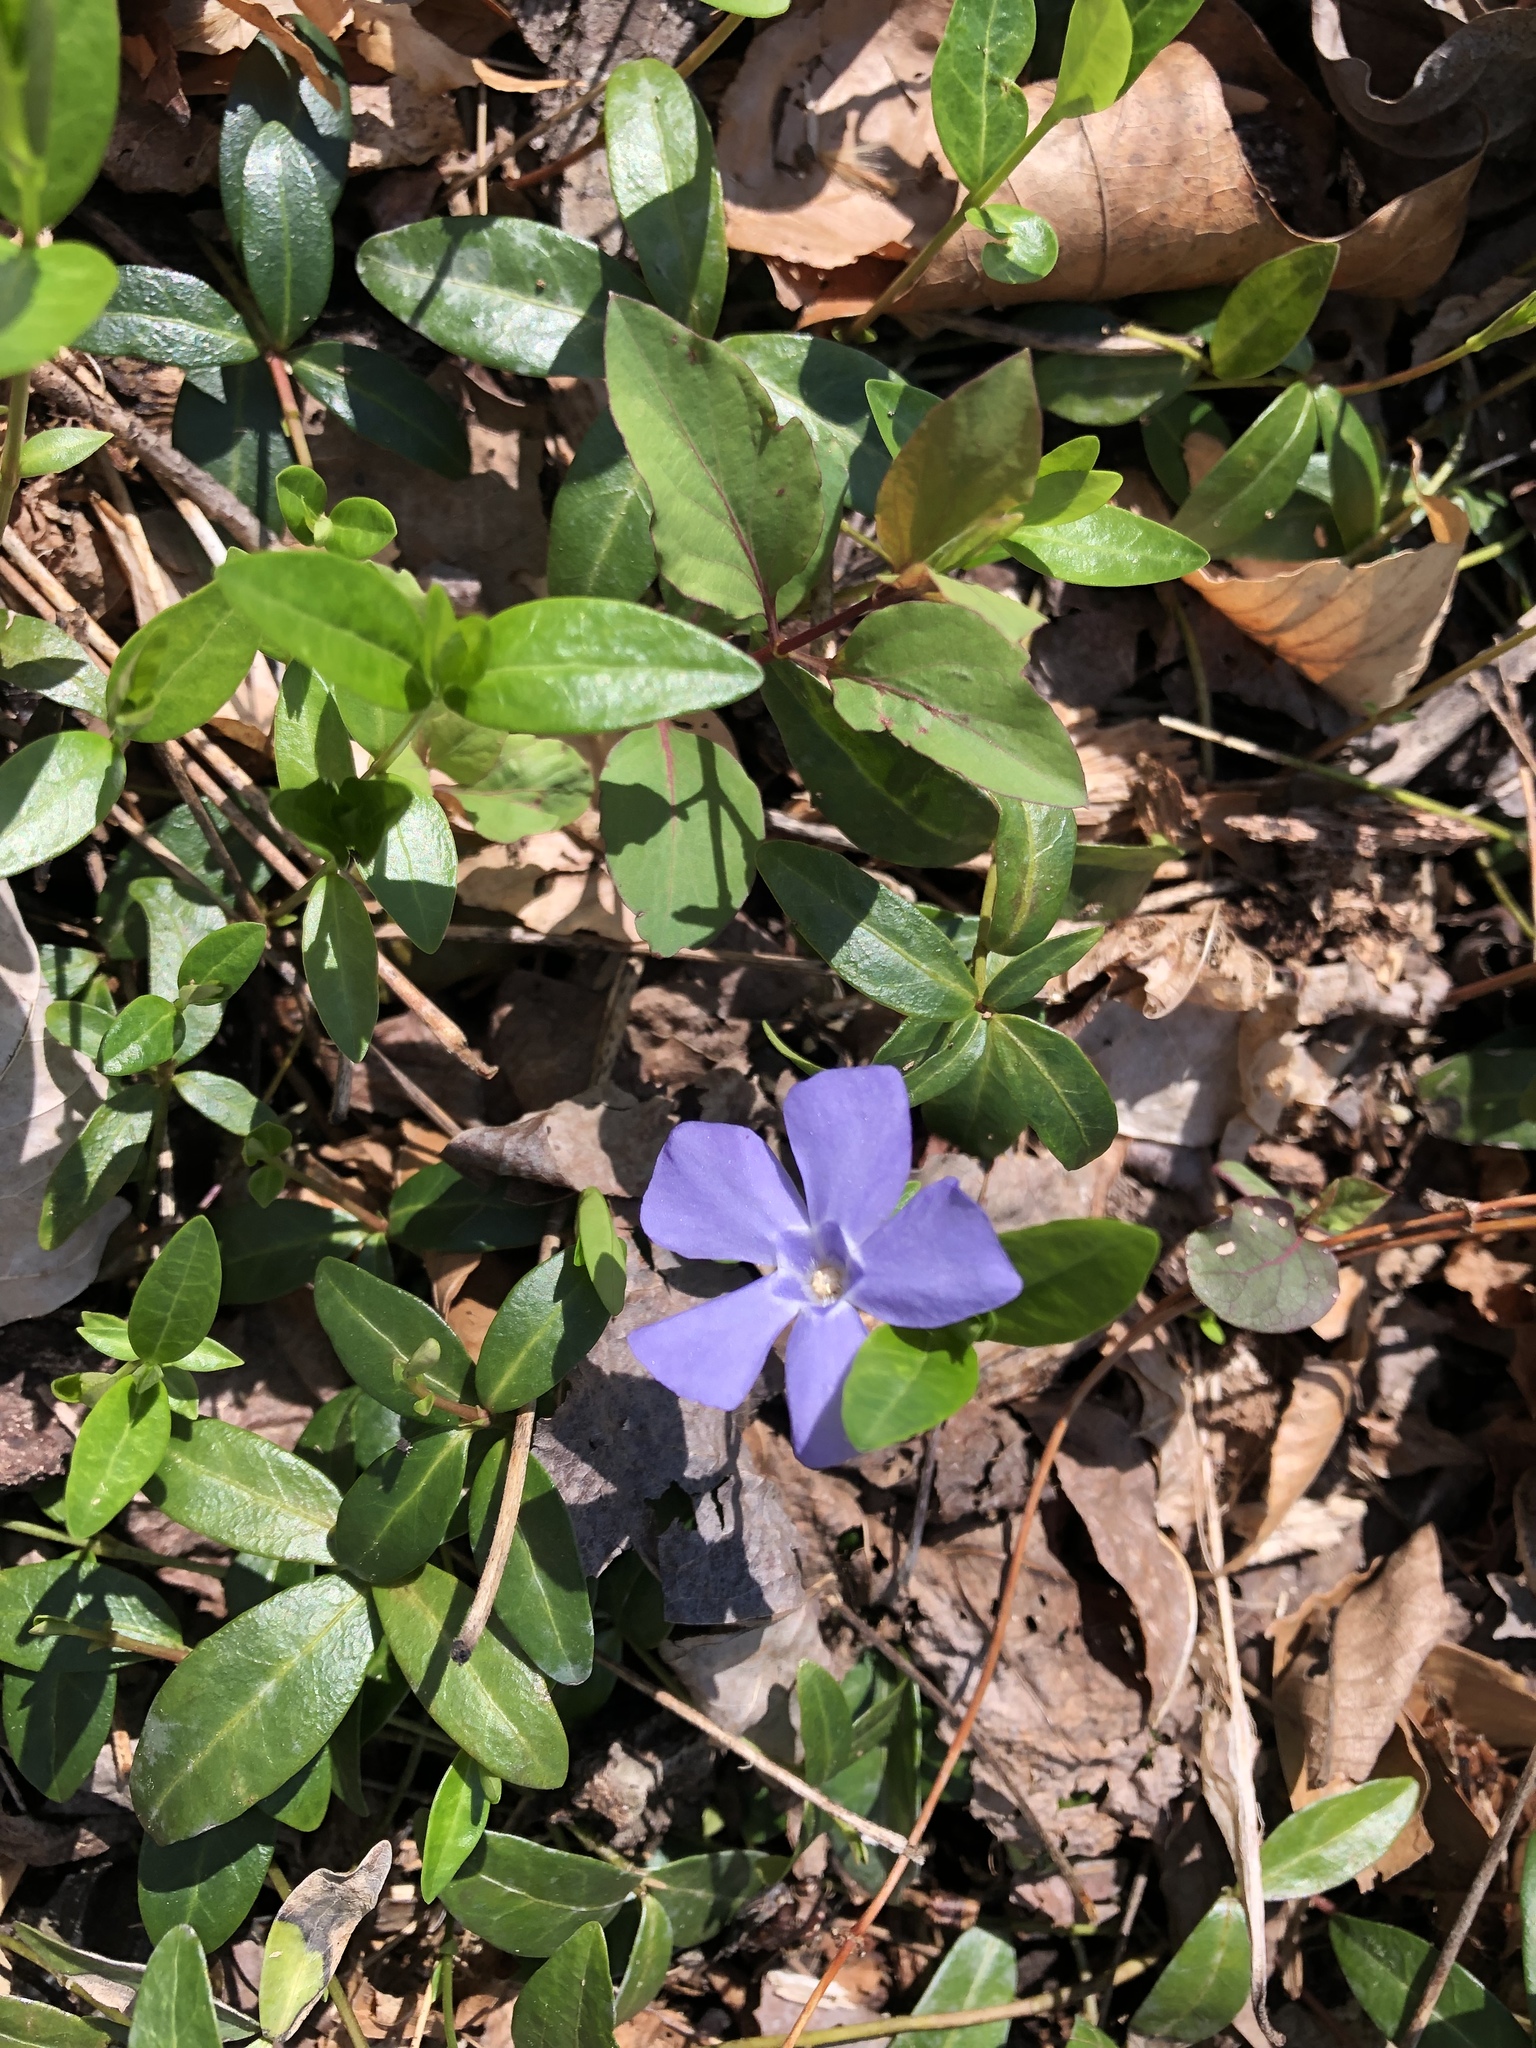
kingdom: Plantae
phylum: Tracheophyta
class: Magnoliopsida
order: Gentianales
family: Apocynaceae
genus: Vinca
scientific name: Vinca minor
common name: Lesser periwinkle
